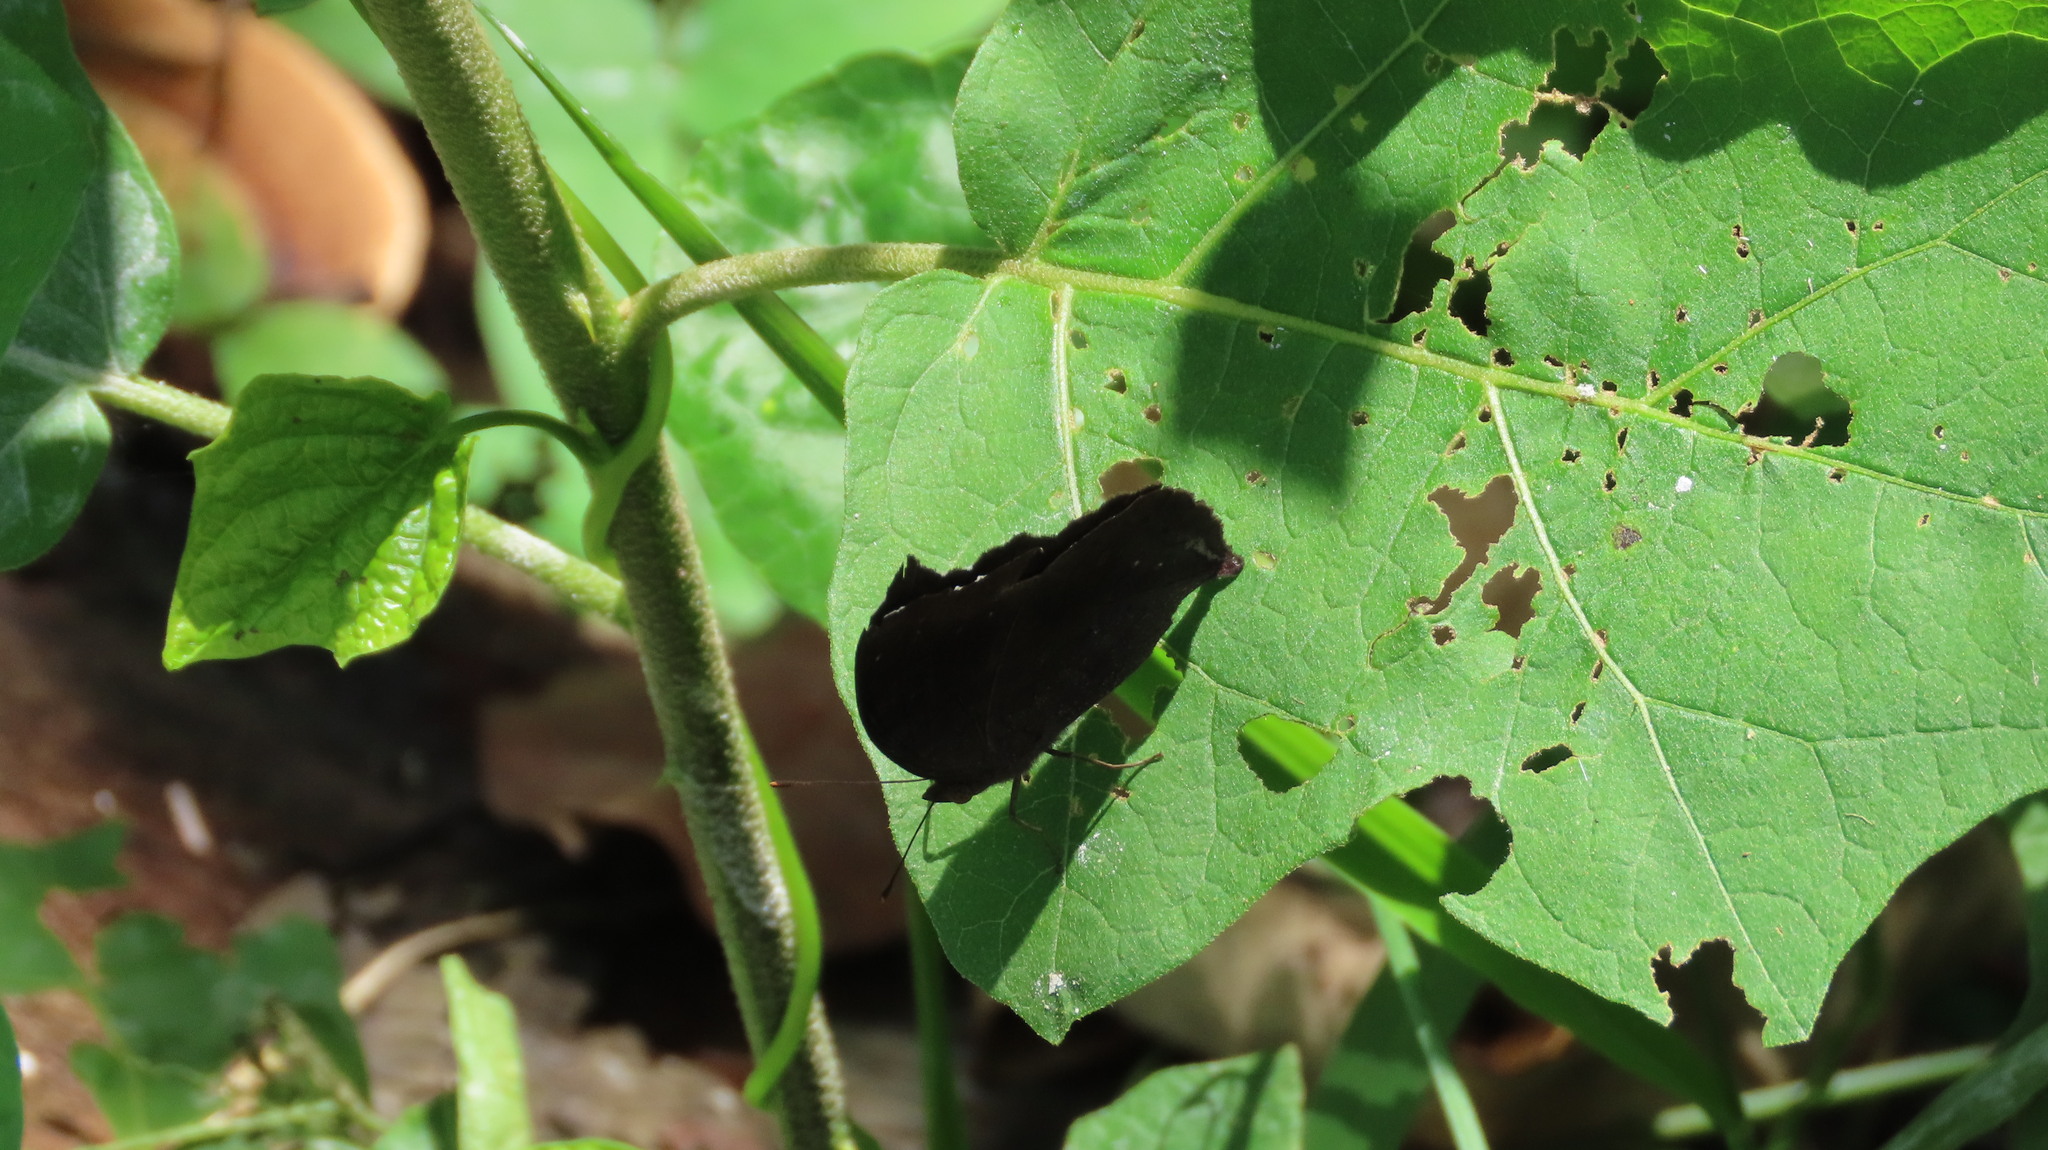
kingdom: Animalia
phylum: Arthropoda
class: Insecta
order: Lepidoptera
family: Nymphalidae
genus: Junonia
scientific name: Junonia iphita
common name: Chocolate pansy
